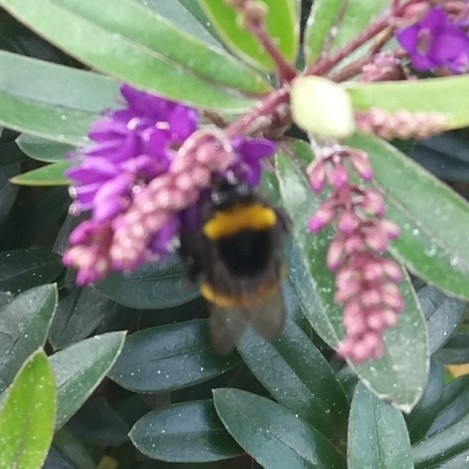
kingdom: Animalia
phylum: Arthropoda
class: Insecta
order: Hymenoptera
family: Apidae
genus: Bombus
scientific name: Bombus terrestris
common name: Buff-tailed bumblebee
